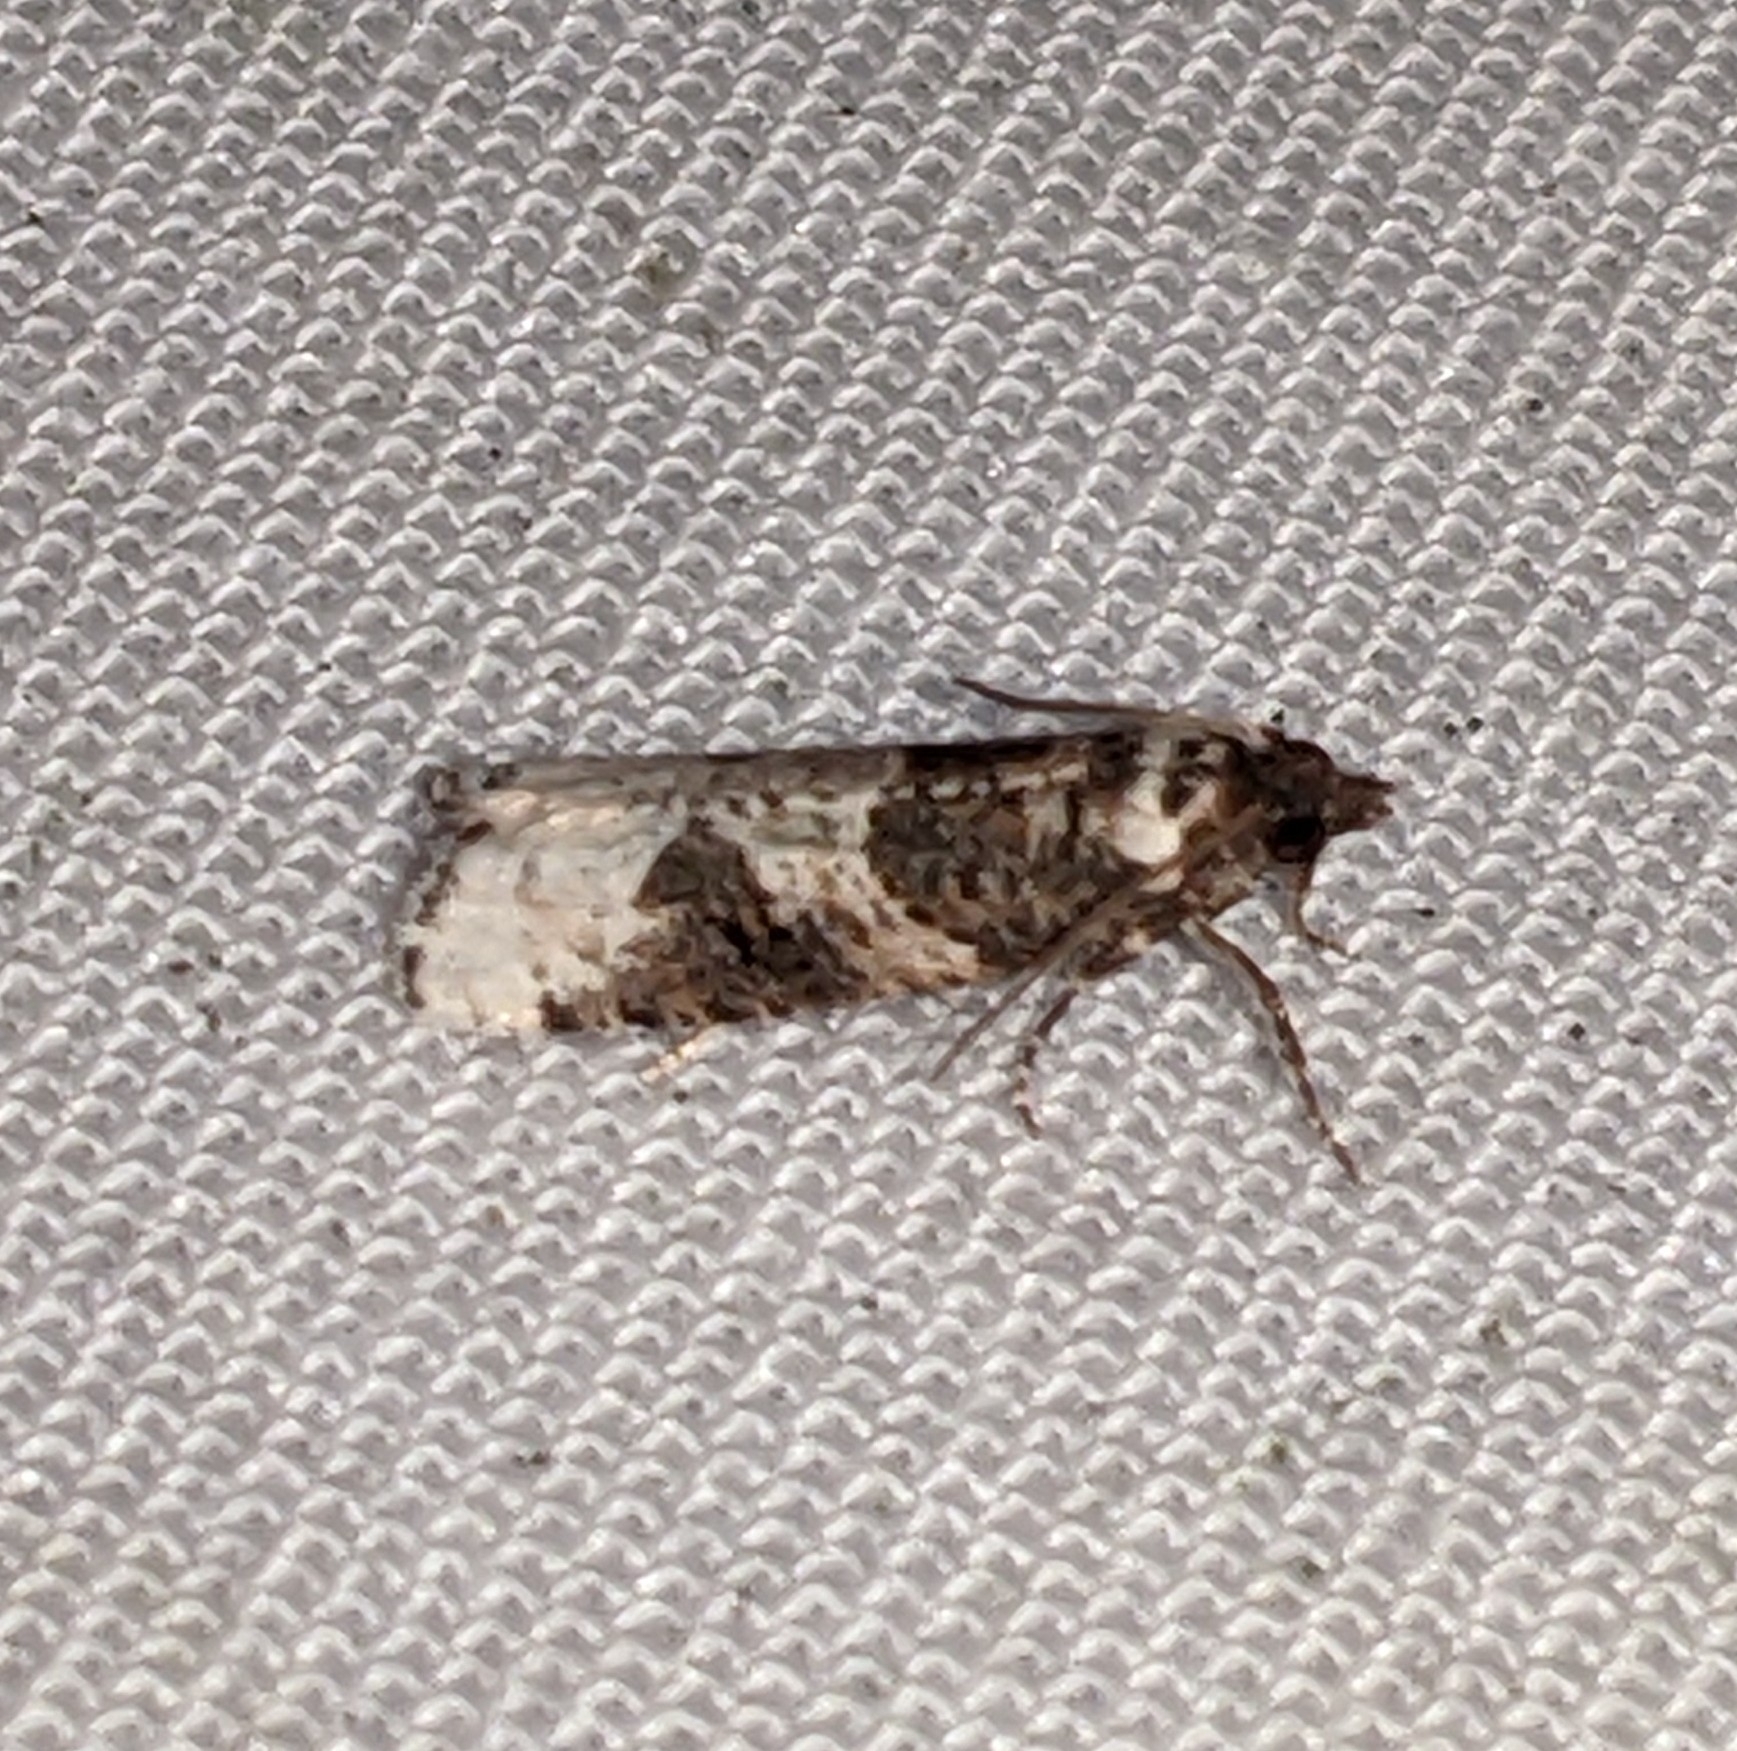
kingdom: Animalia
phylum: Arthropoda
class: Insecta
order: Lepidoptera
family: Tortricidae
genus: Epinotia
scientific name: Epinotia lomonana
